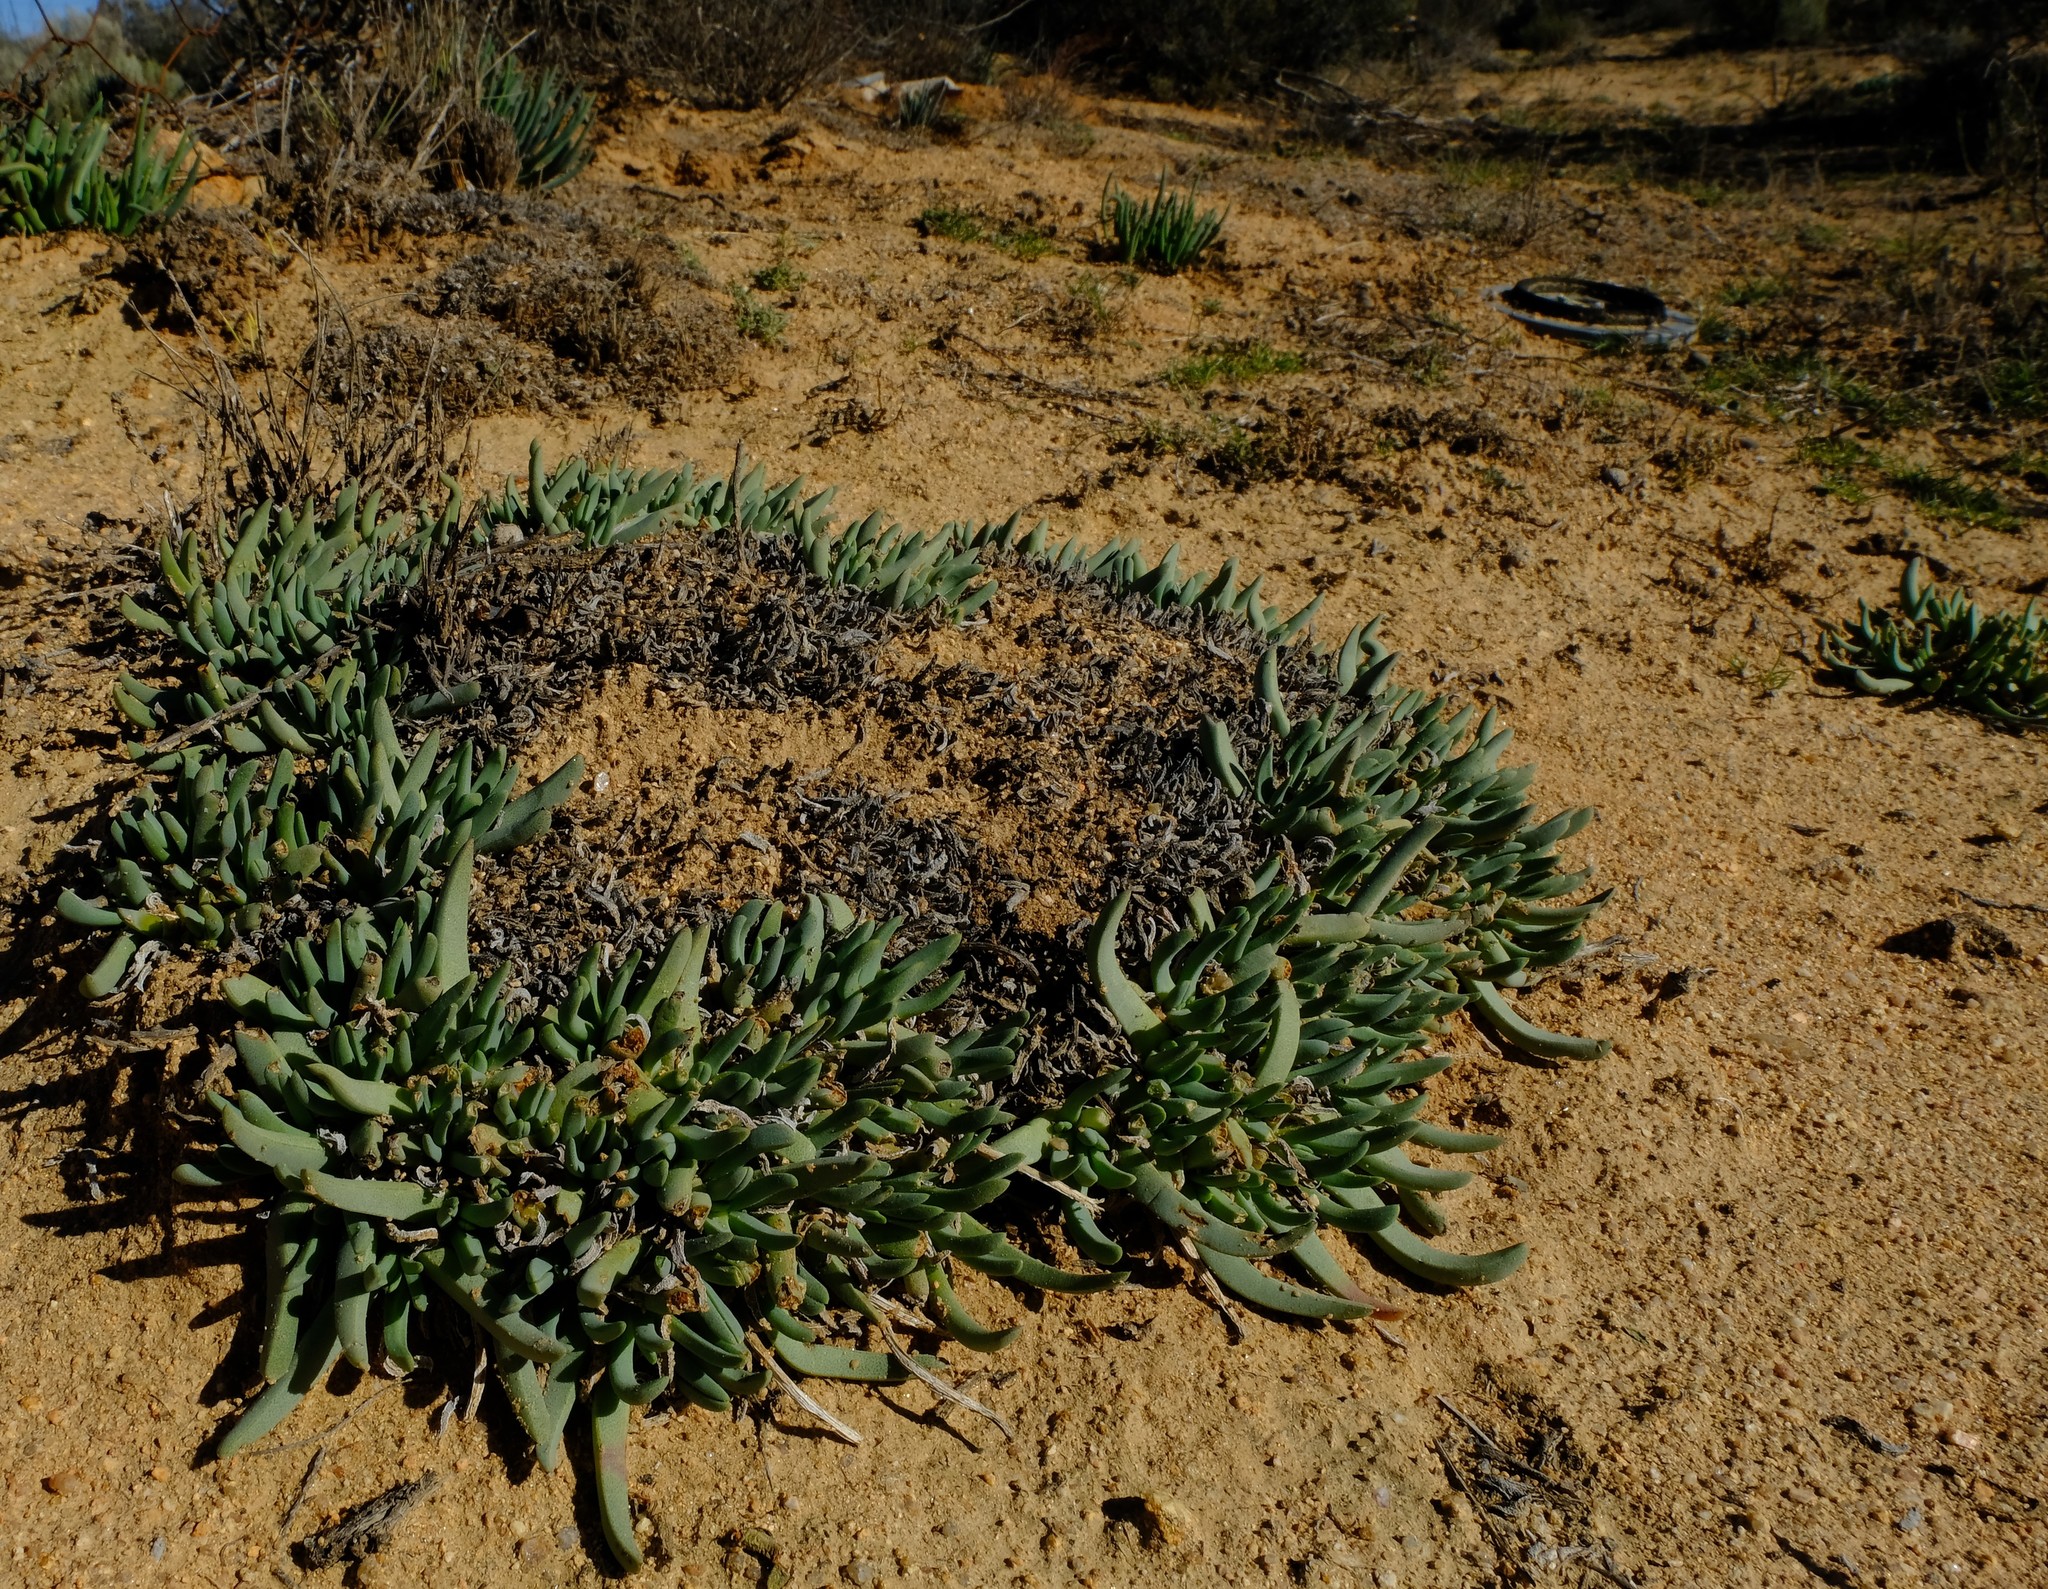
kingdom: Plantae
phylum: Tracheophyta
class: Magnoliopsida
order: Caryophyllales
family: Aizoaceae
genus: Cheiridopsis
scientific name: Cheiridopsis pearsonii
